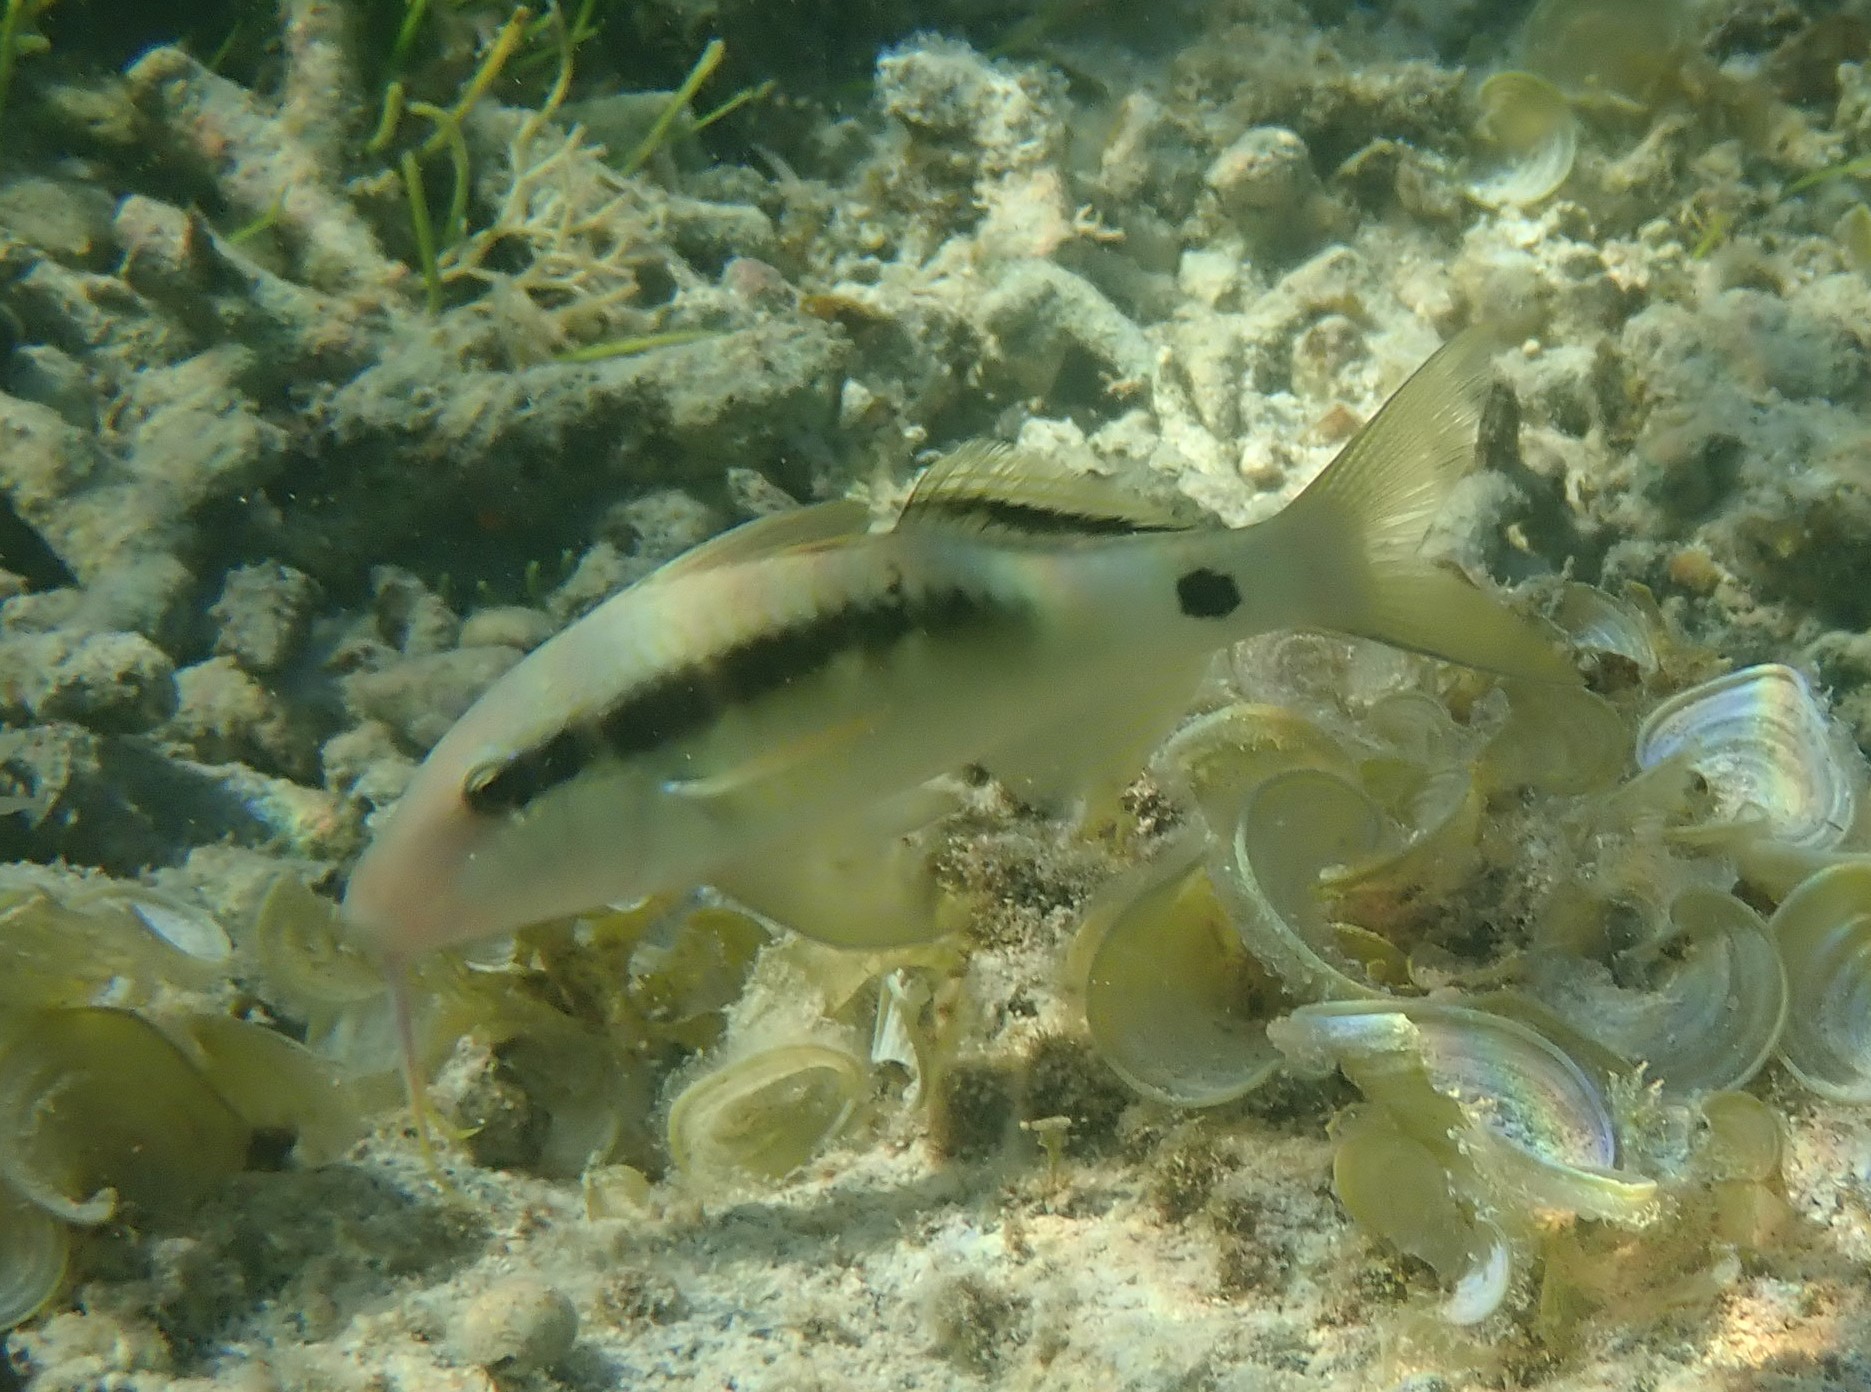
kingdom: Animalia
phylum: Chordata
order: Perciformes
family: Mullidae
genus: Parupeneus
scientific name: Parupeneus macronemus
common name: Long-barbel goatfish
